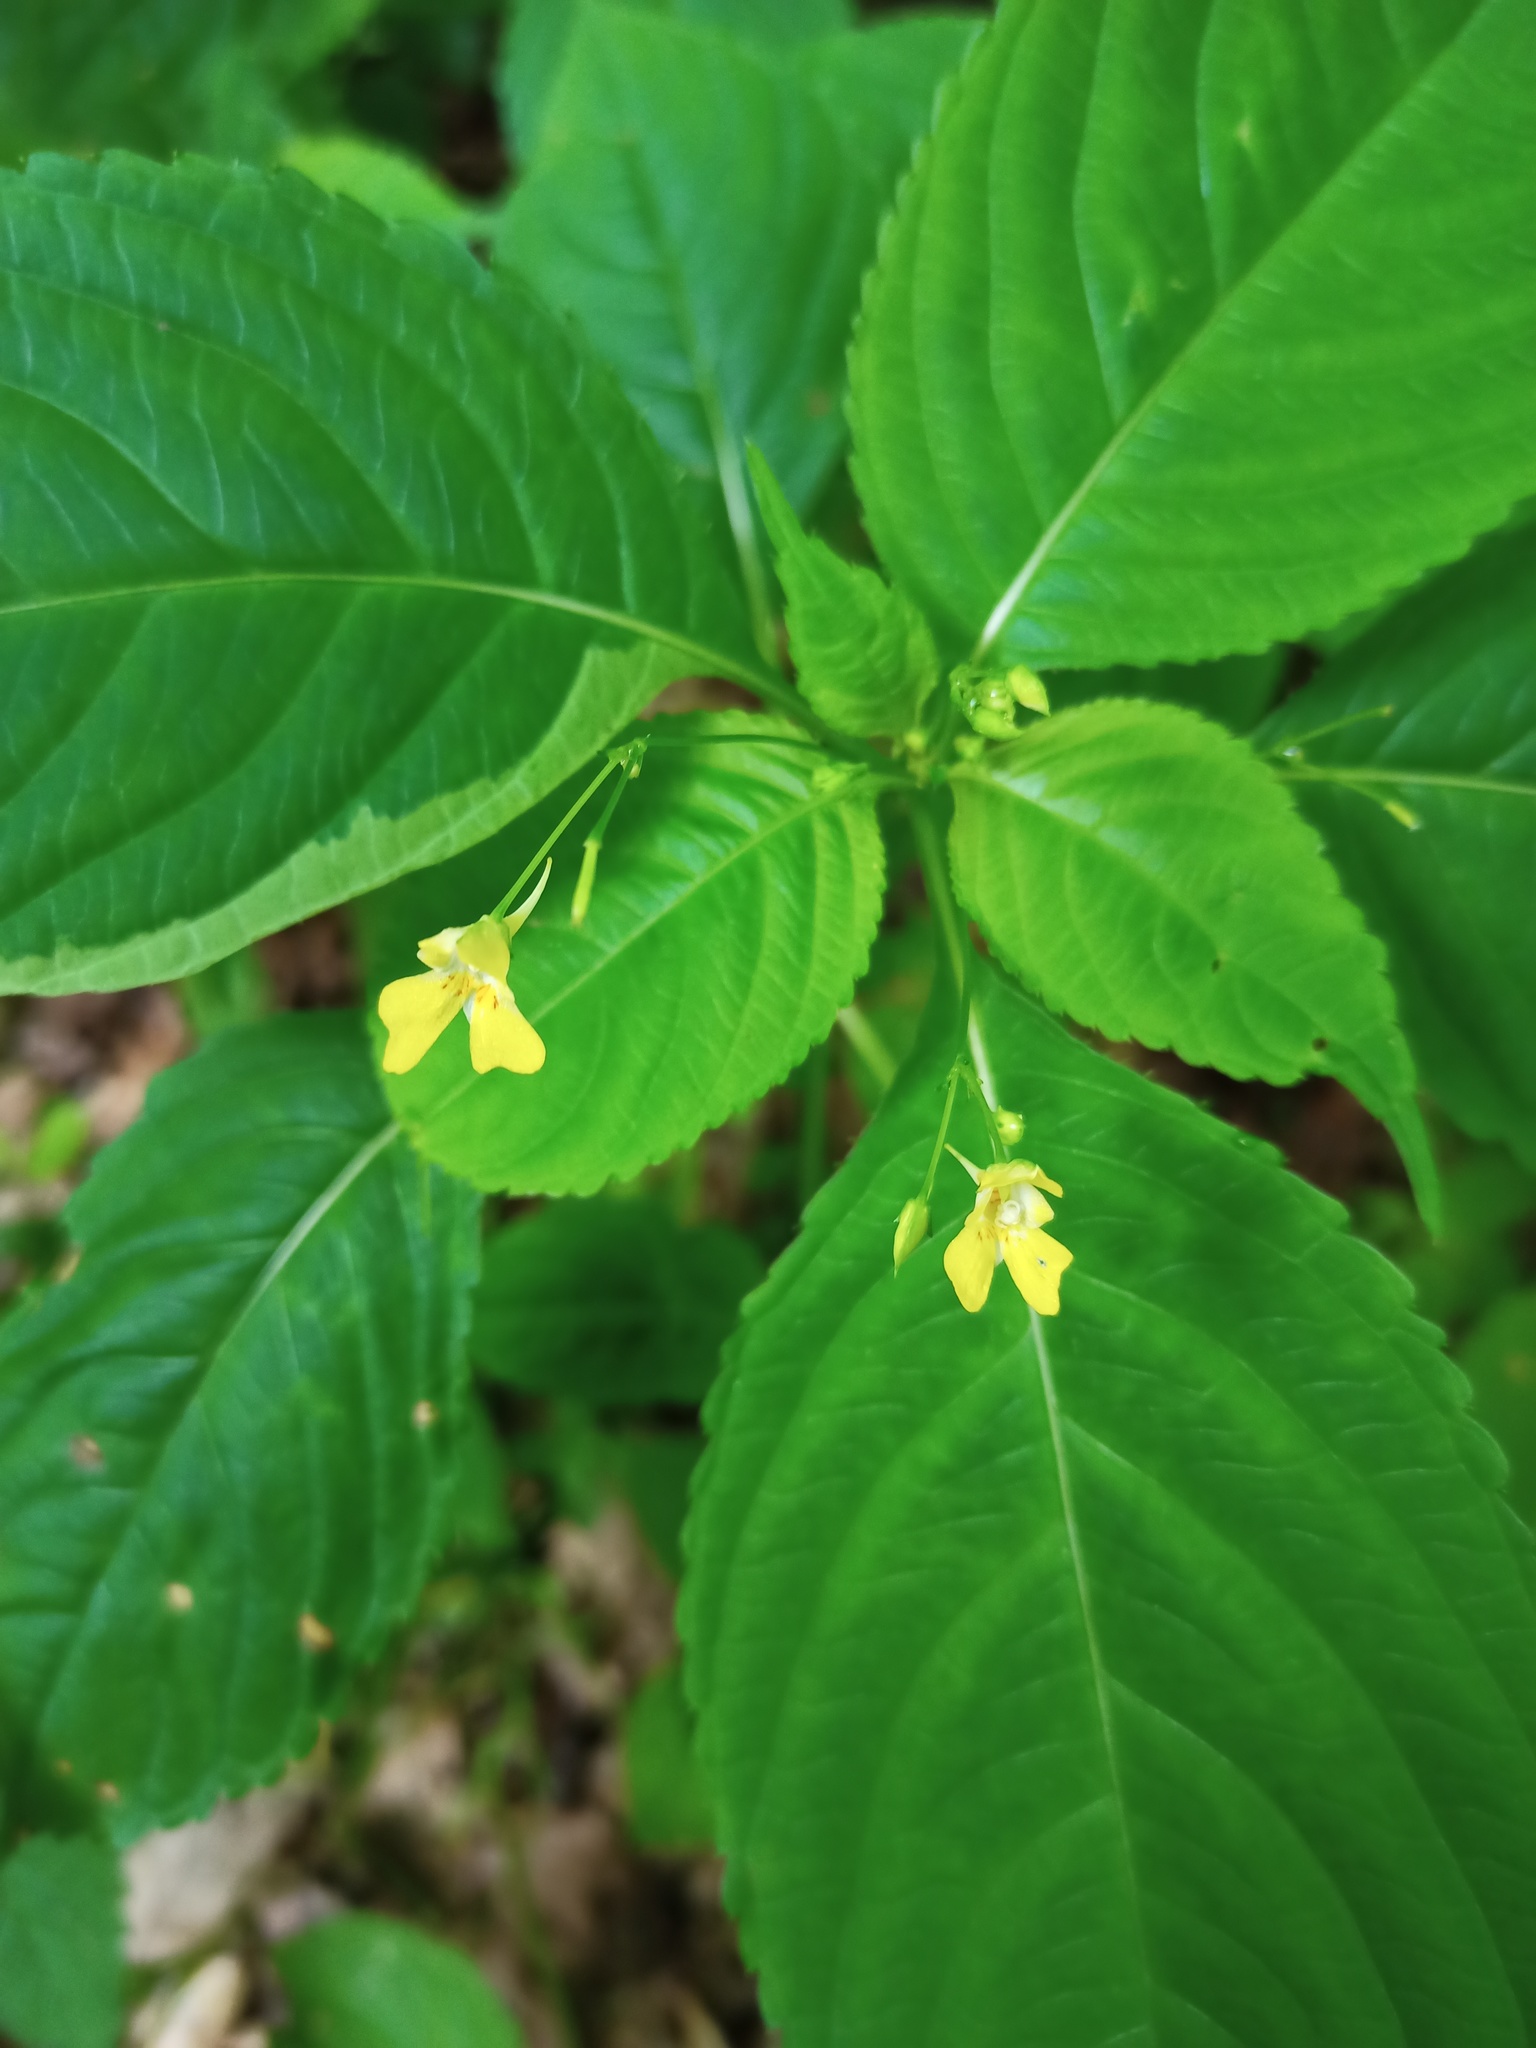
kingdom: Plantae
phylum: Tracheophyta
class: Magnoliopsida
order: Ericales
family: Balsaminaceae
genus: Impatiens
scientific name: Impatiens parviflora
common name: Small balsam
